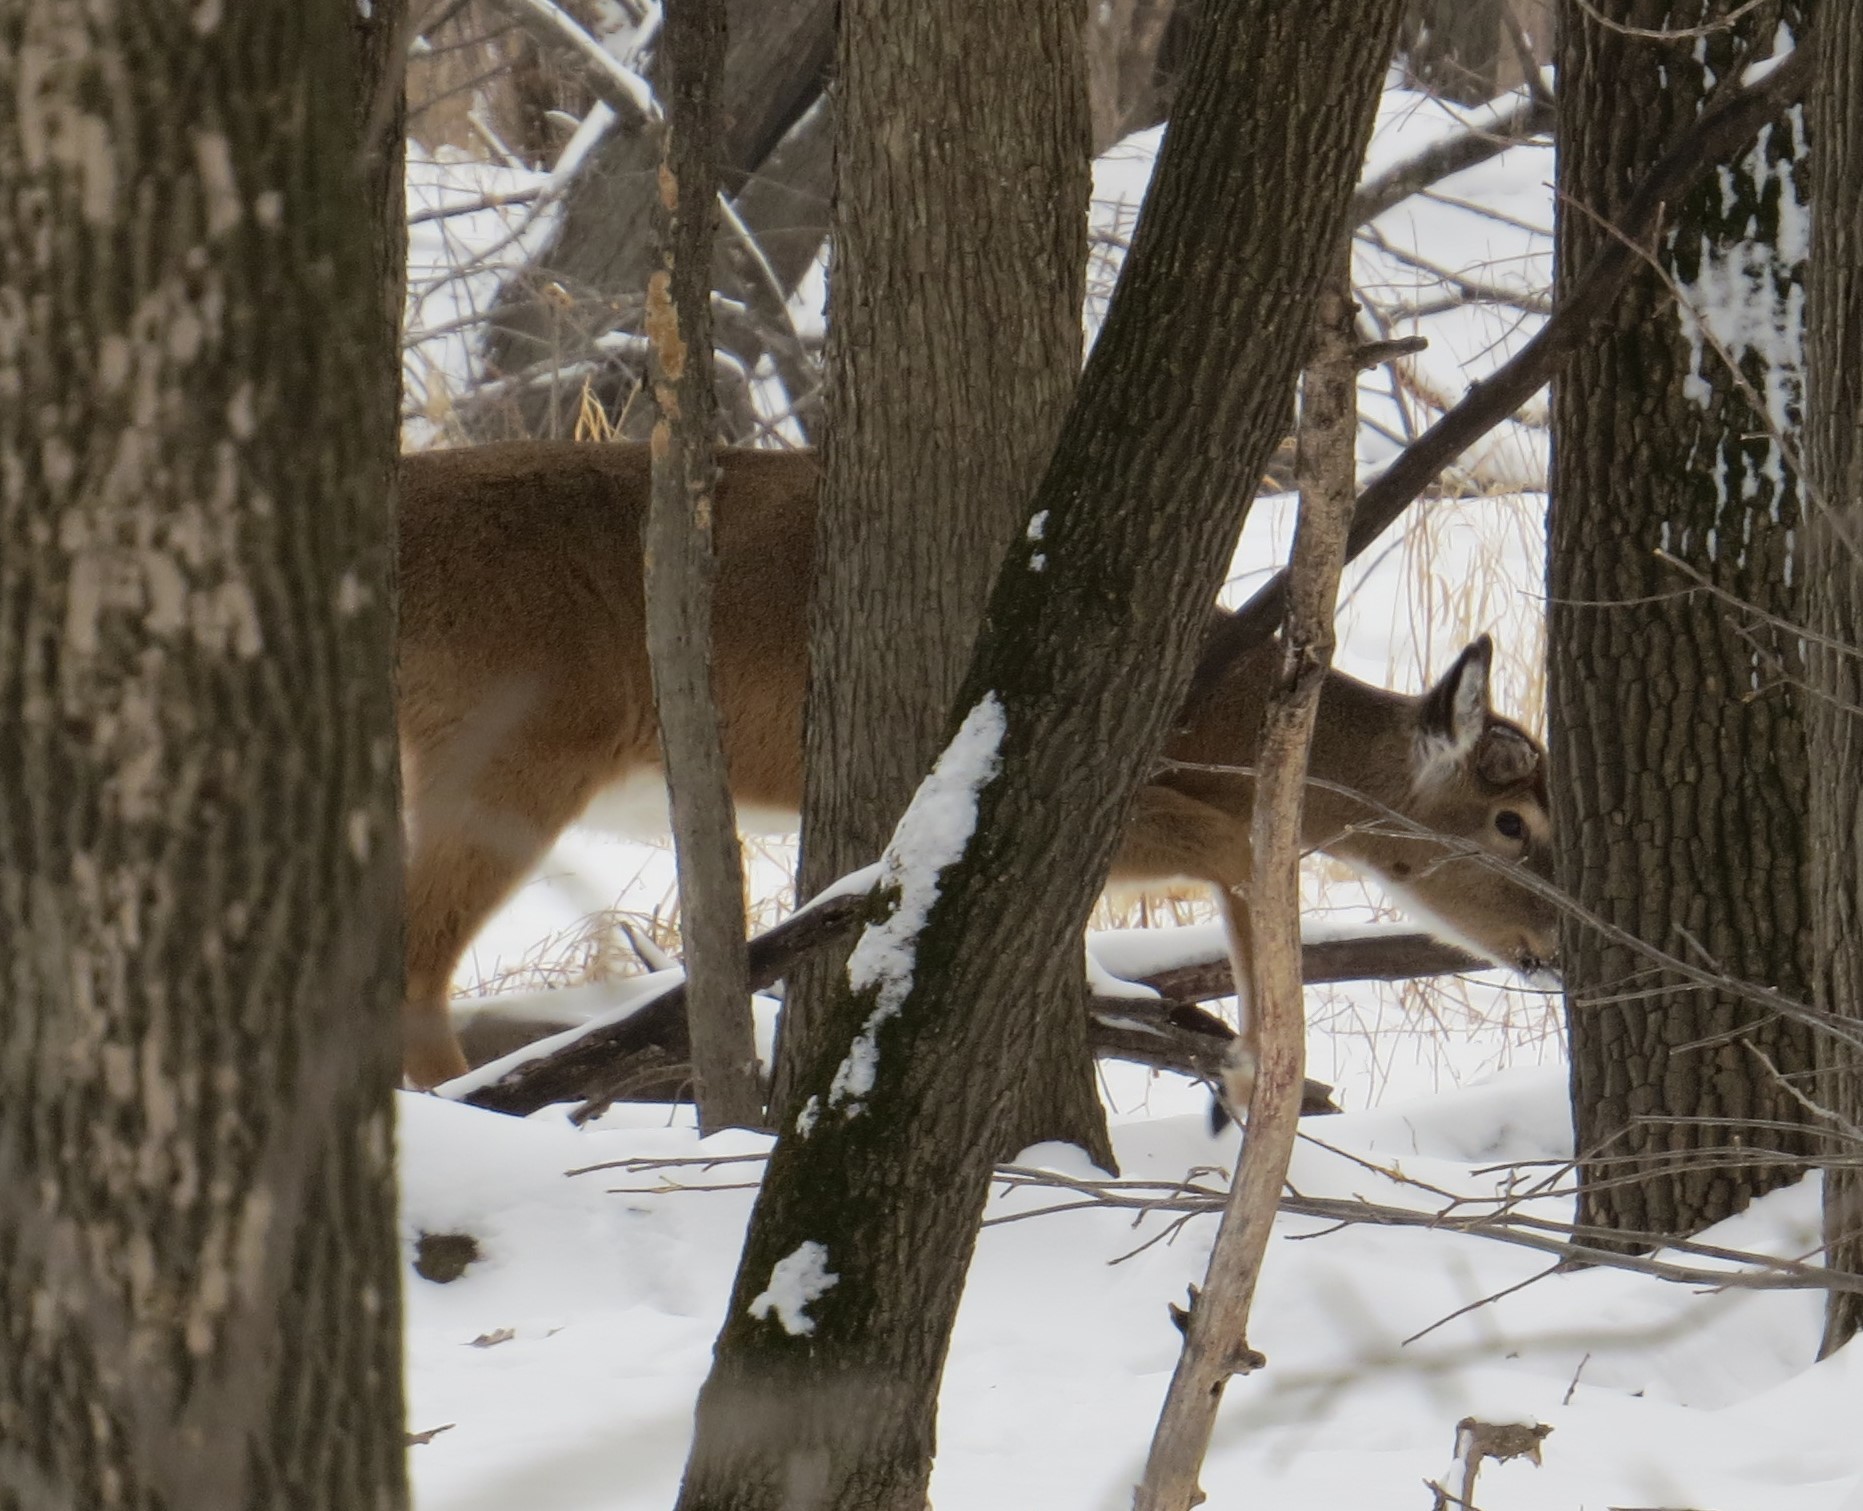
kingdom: Animalia
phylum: Chordata
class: Mammalia
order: Artiodactyla
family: Cervidae
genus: Odocoileus
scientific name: Odocoileus virginianus
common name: White-tailed deer
